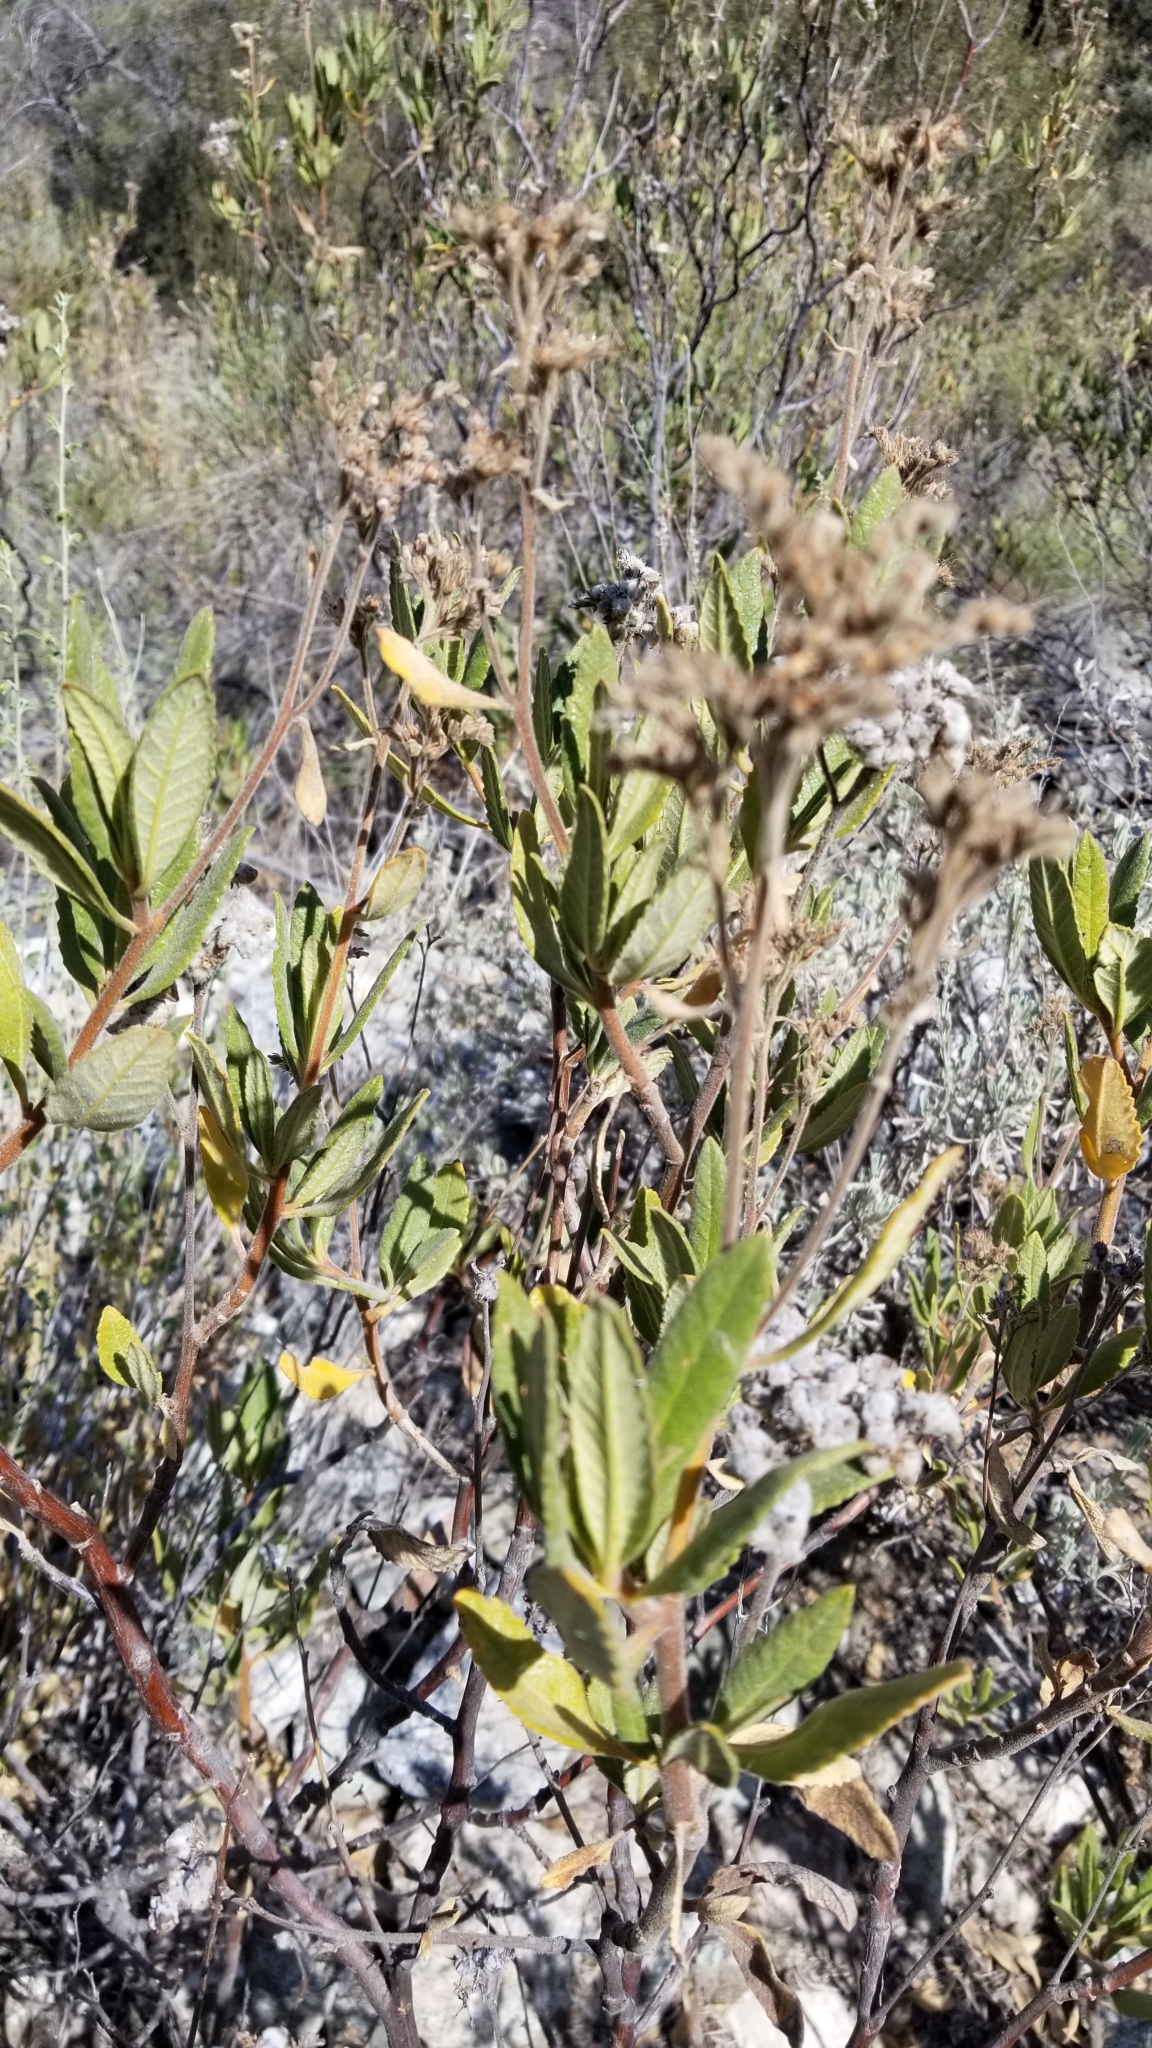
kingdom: Plantae
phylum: Tracheophyta
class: Magnoliopsida
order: Boraginales
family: Namaceae
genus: Eriodictyon
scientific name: Eriodictyon crassifolium
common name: Thick-leaf yerba-santa
